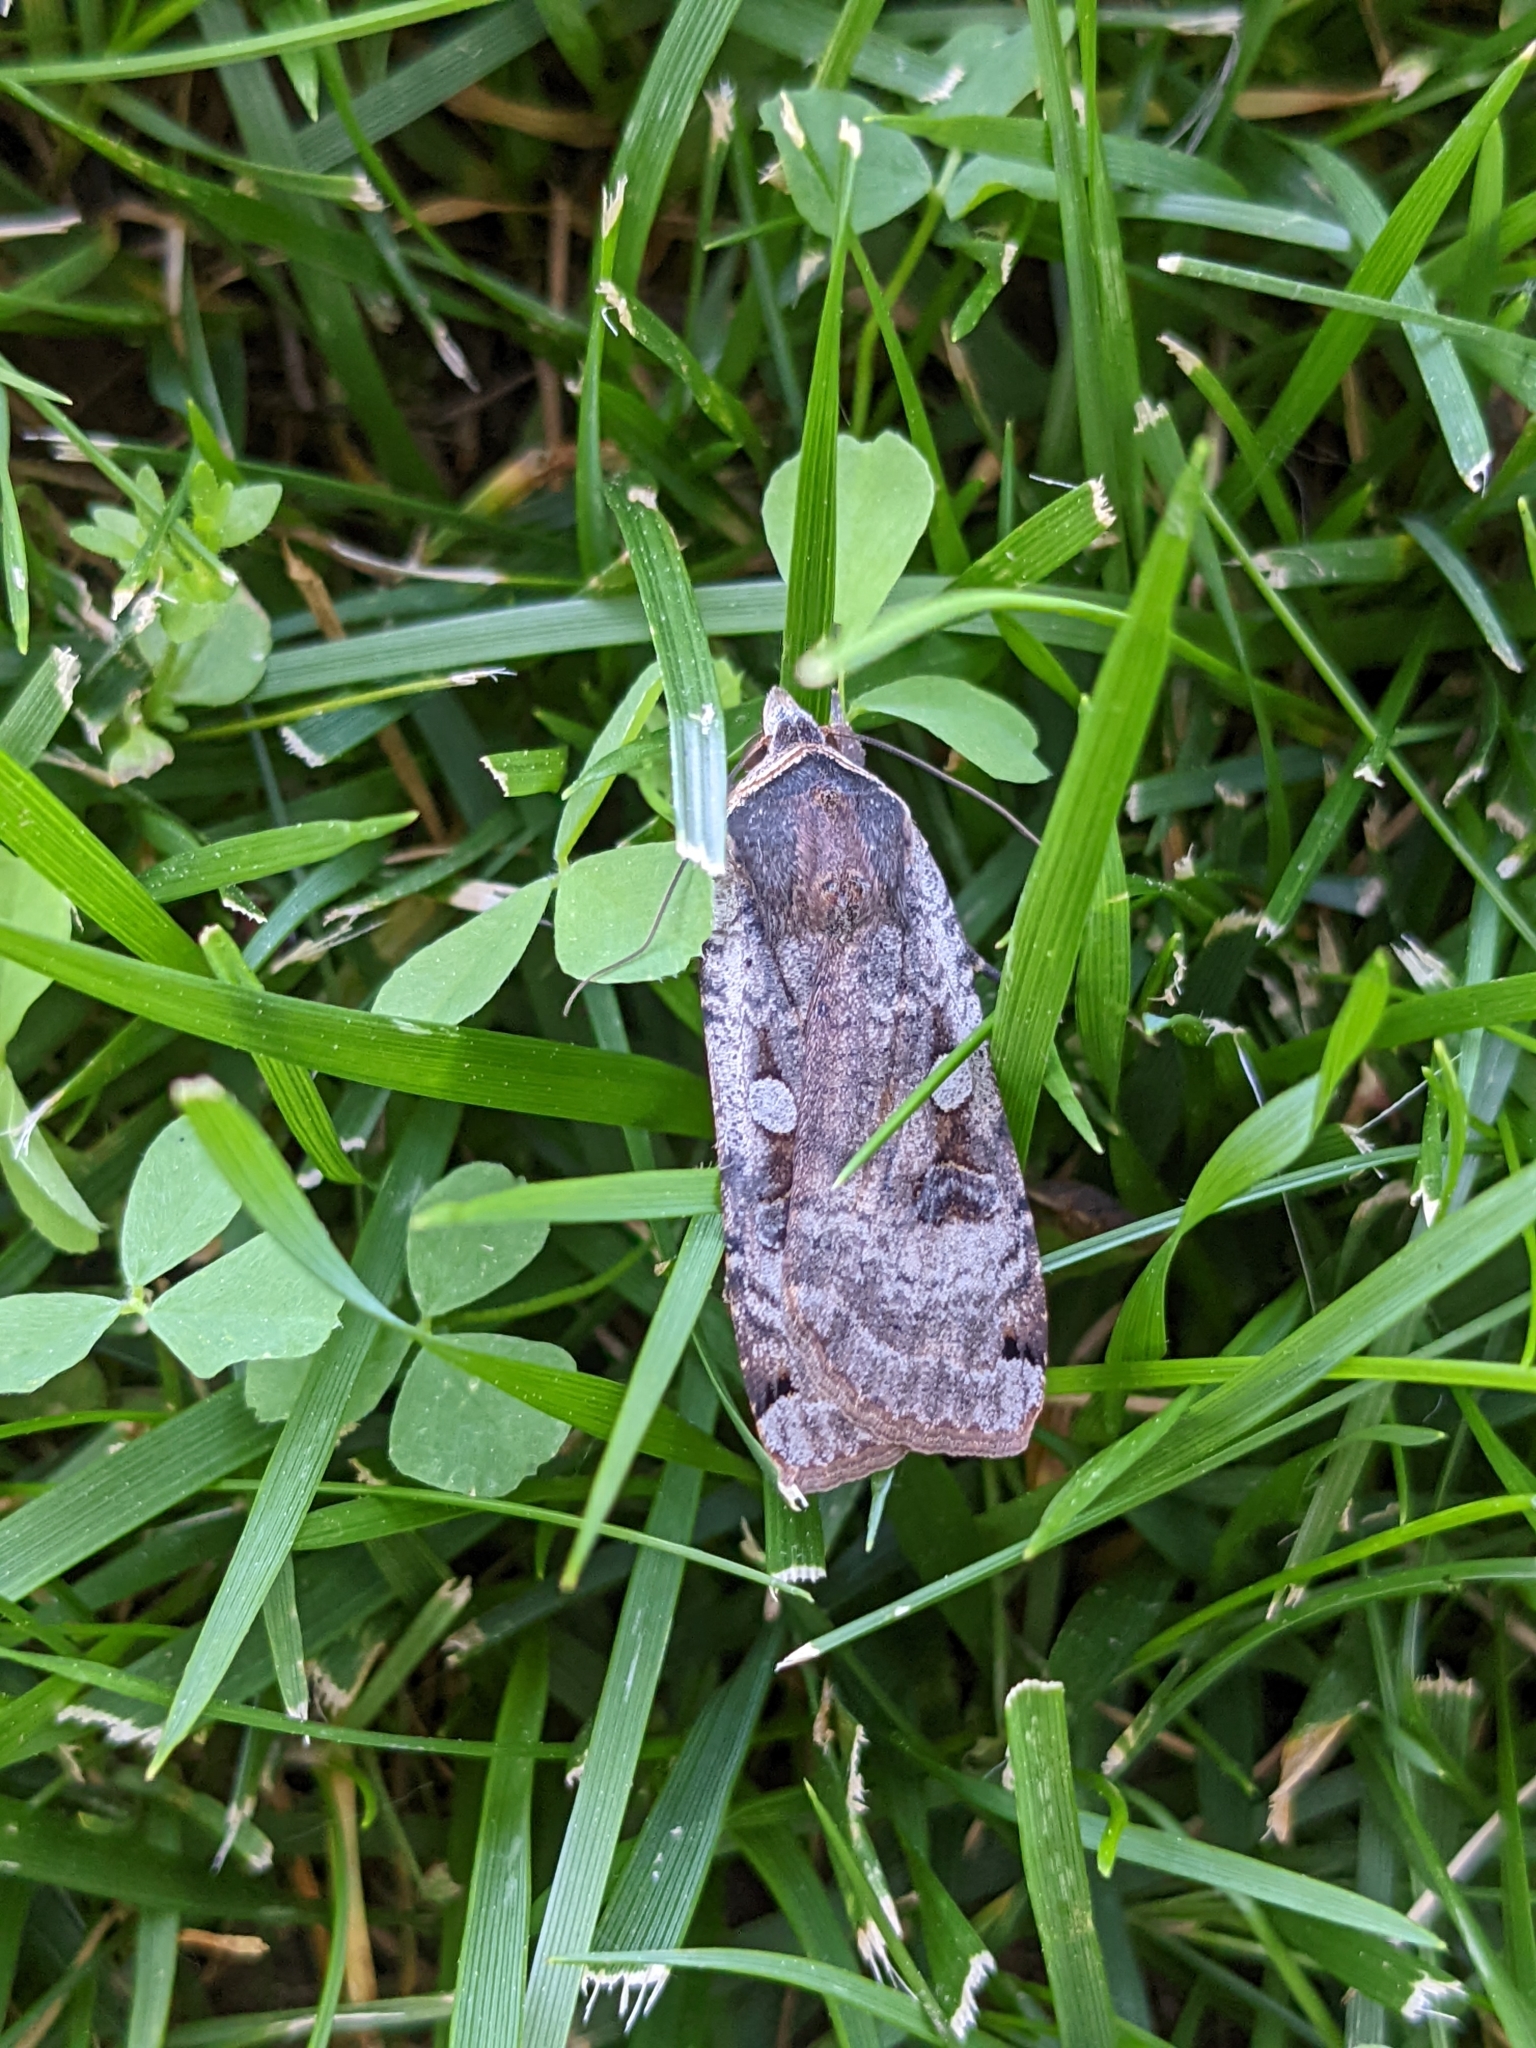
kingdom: Animalia
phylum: Arthropoda
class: Insecta
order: Lepidoptera
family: Noctuidae
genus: Noctua
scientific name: Noctua pronuba
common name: Large yellow underwing
